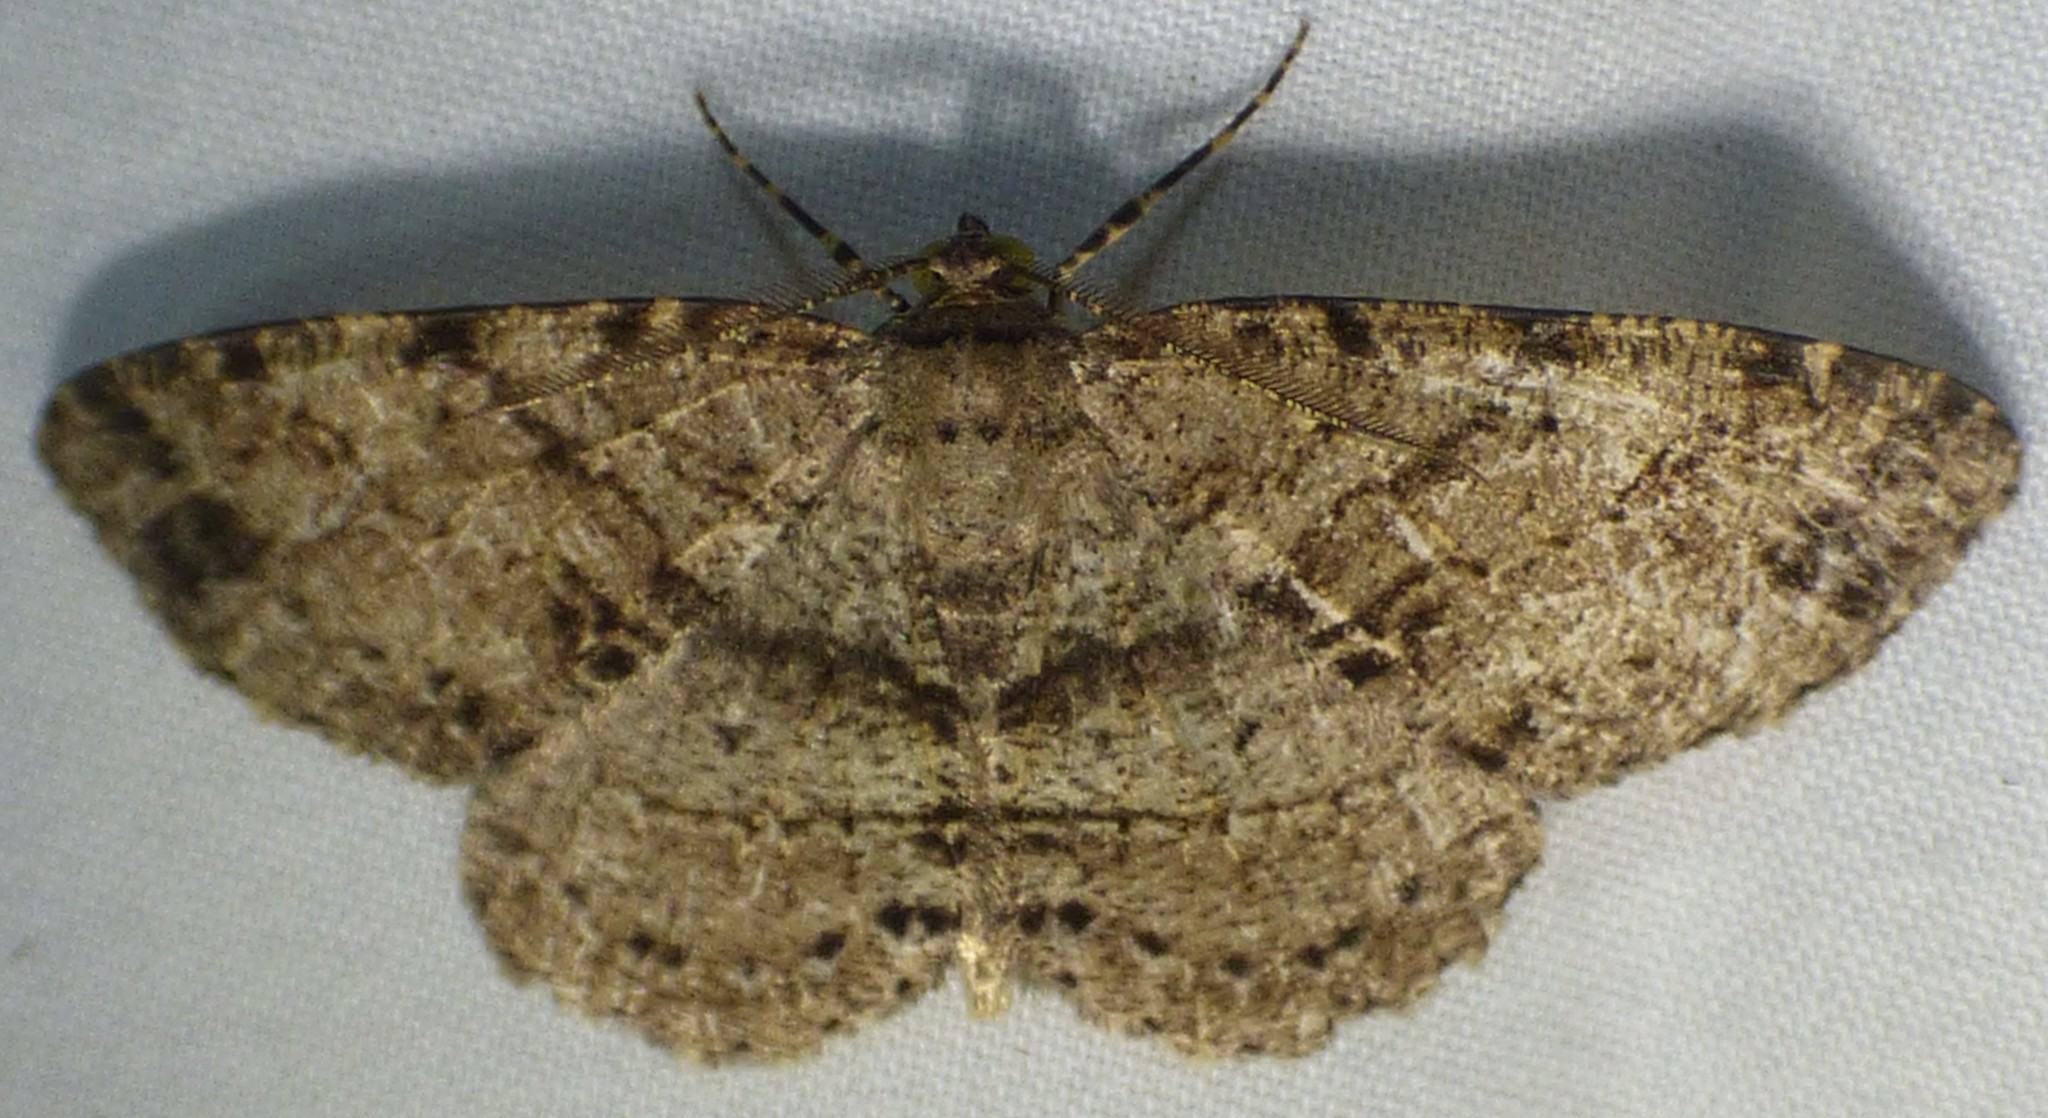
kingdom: Animalia
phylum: Arthropoda
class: Insecta
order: Lepidoptera
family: Geometridae
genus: Melanolophia
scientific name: Melanolophia canadaria
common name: Canadian melanolophia
